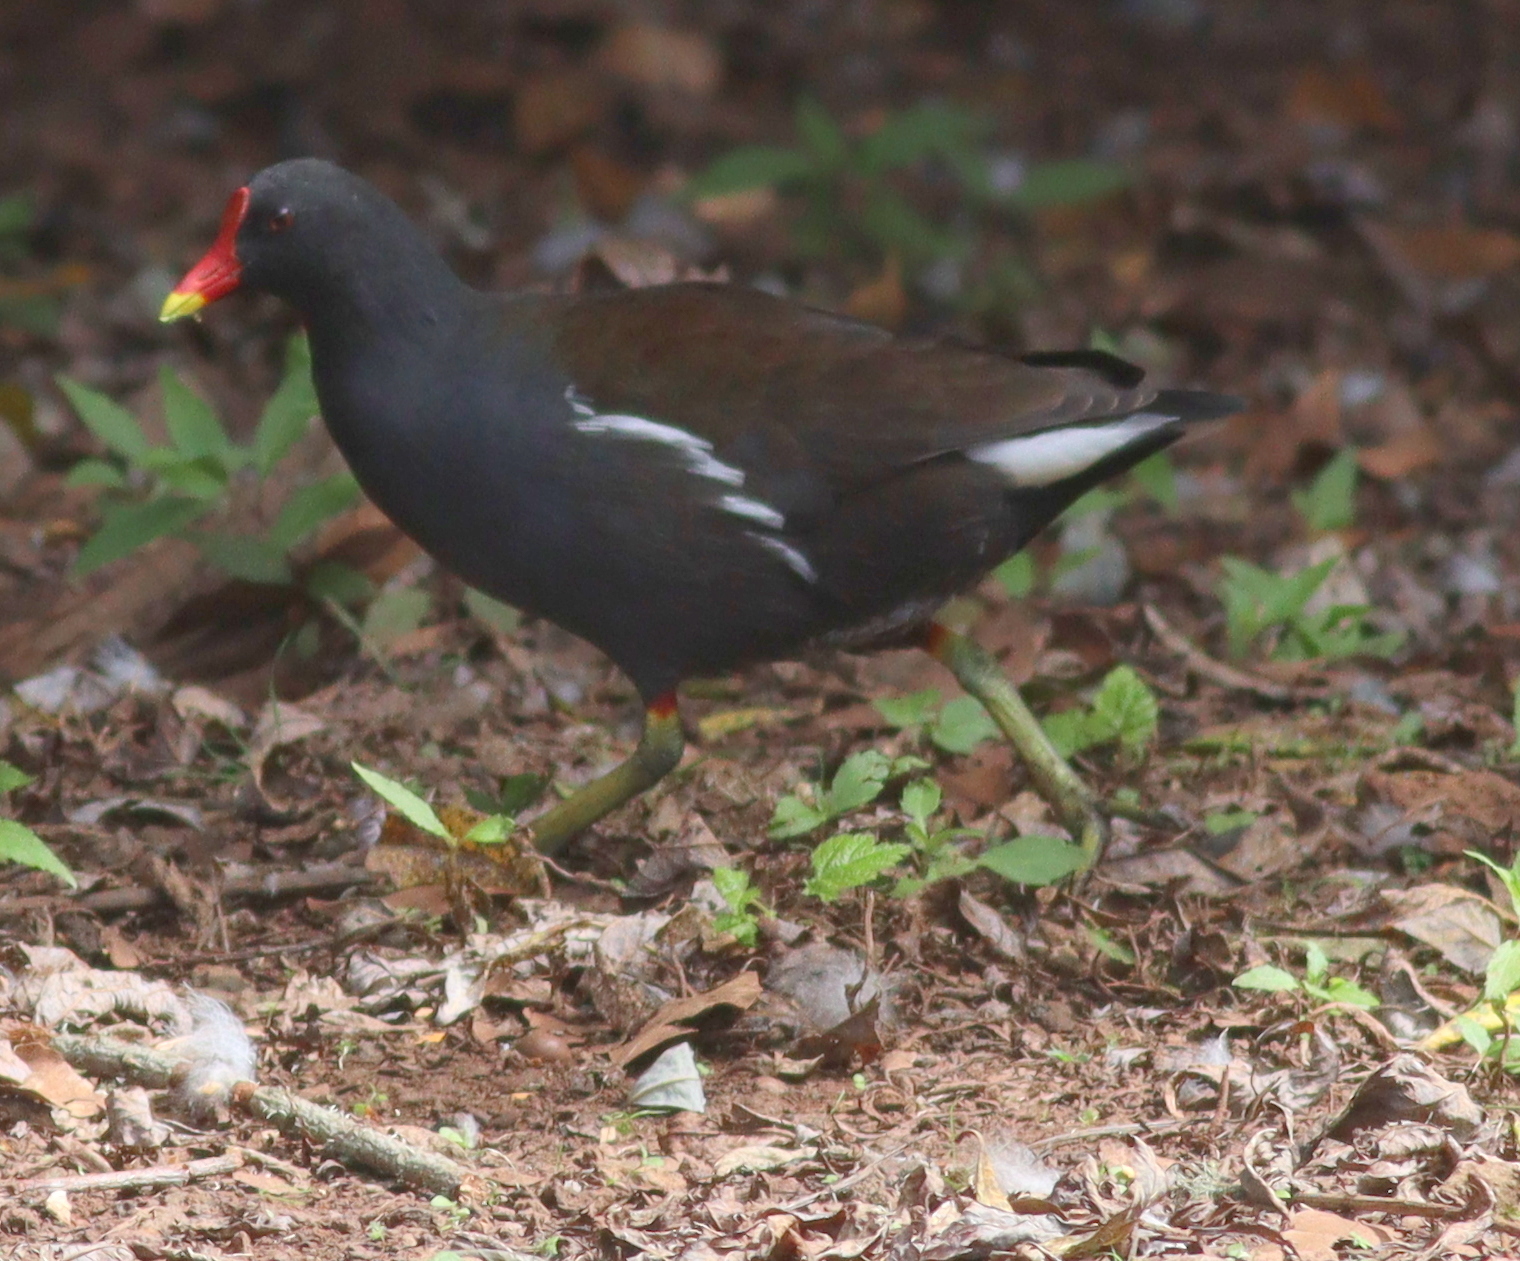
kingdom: Animalia
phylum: Chordata
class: Aves
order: Gruiformes
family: Rallidae
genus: Gallinula
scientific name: Gallinula chloropus
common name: Common moorhen
